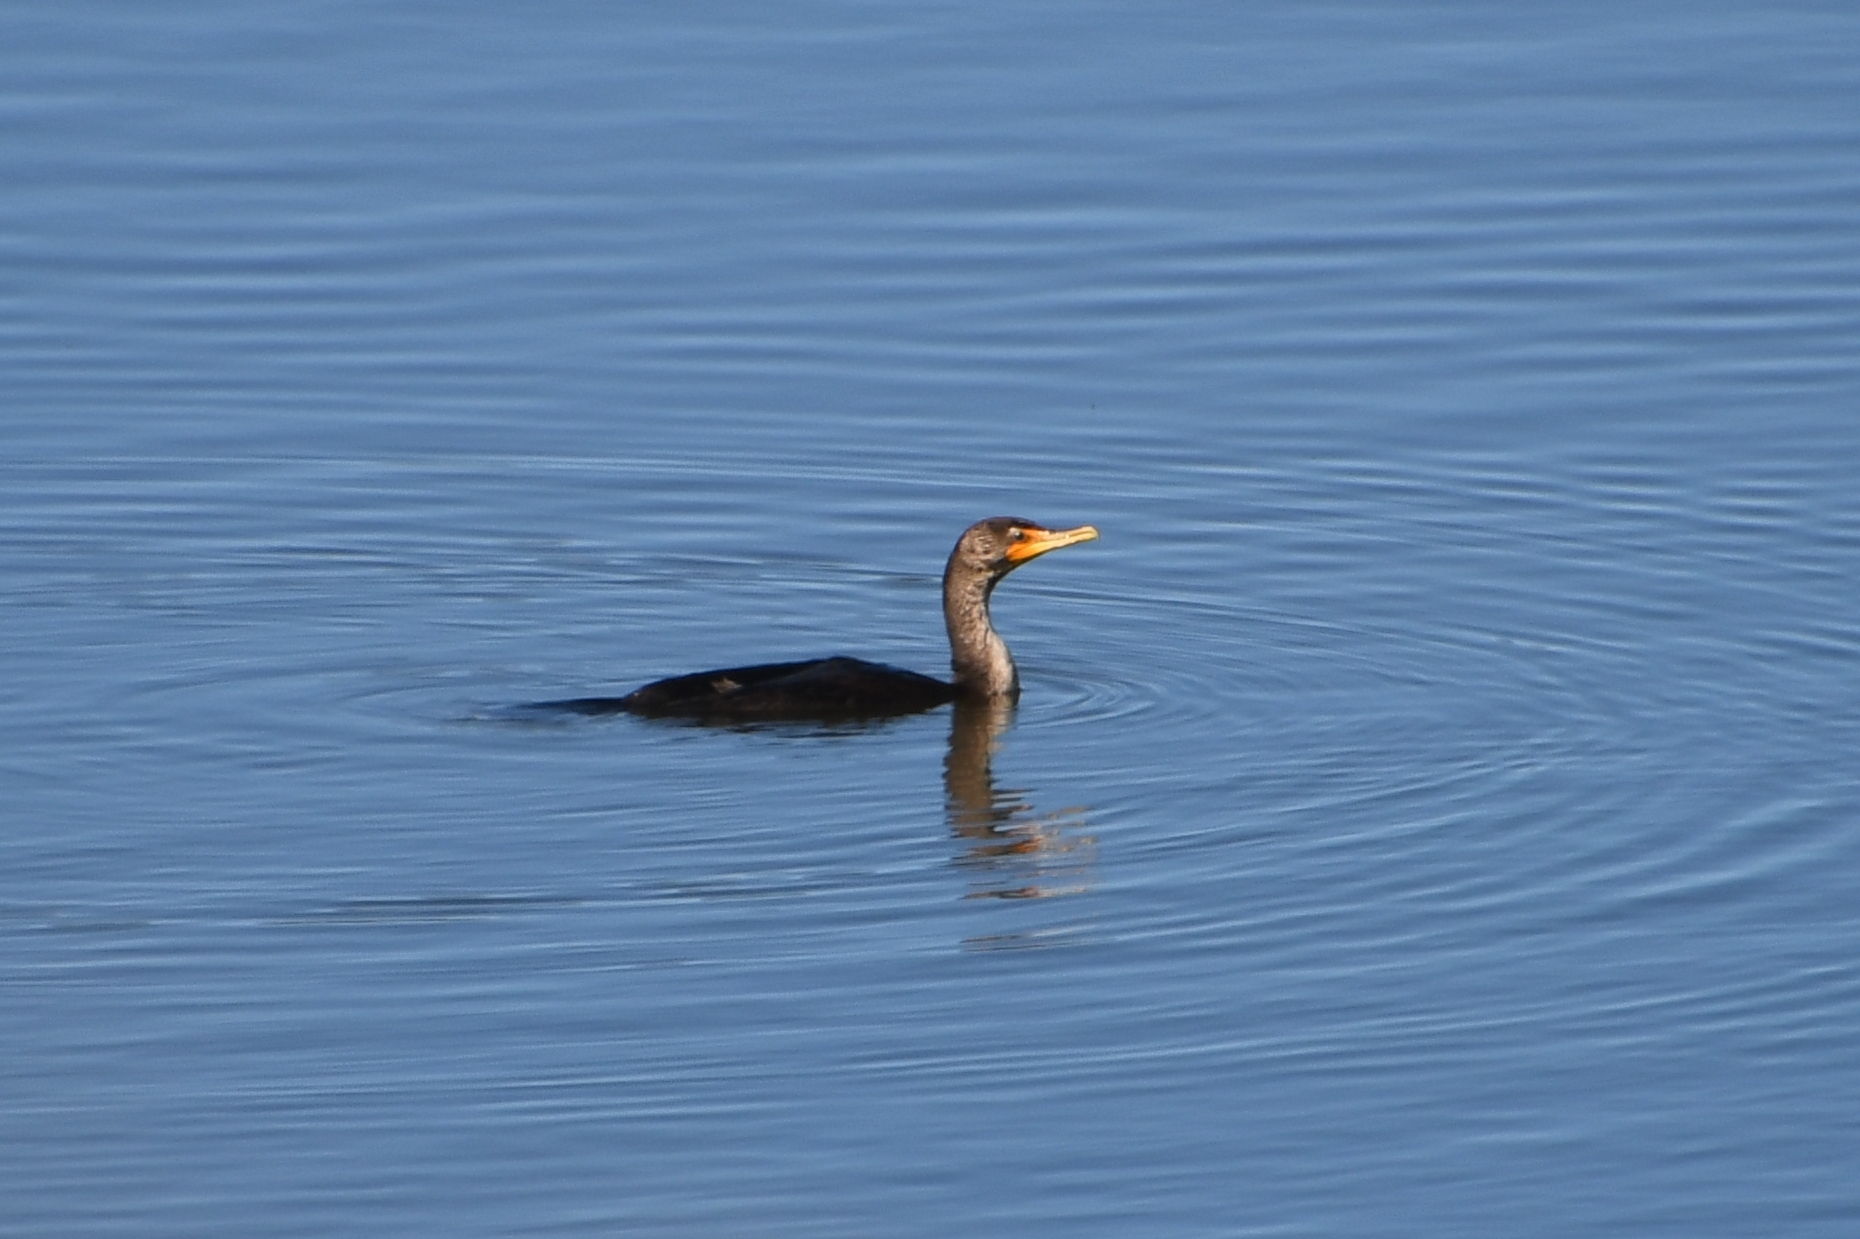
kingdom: Animalia
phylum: Chordata
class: Aves
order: Suliformes
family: Phalacrocoracidae
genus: Phalacrocorax
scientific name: Phalacrocorax auritus
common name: Double-crested cormorant
